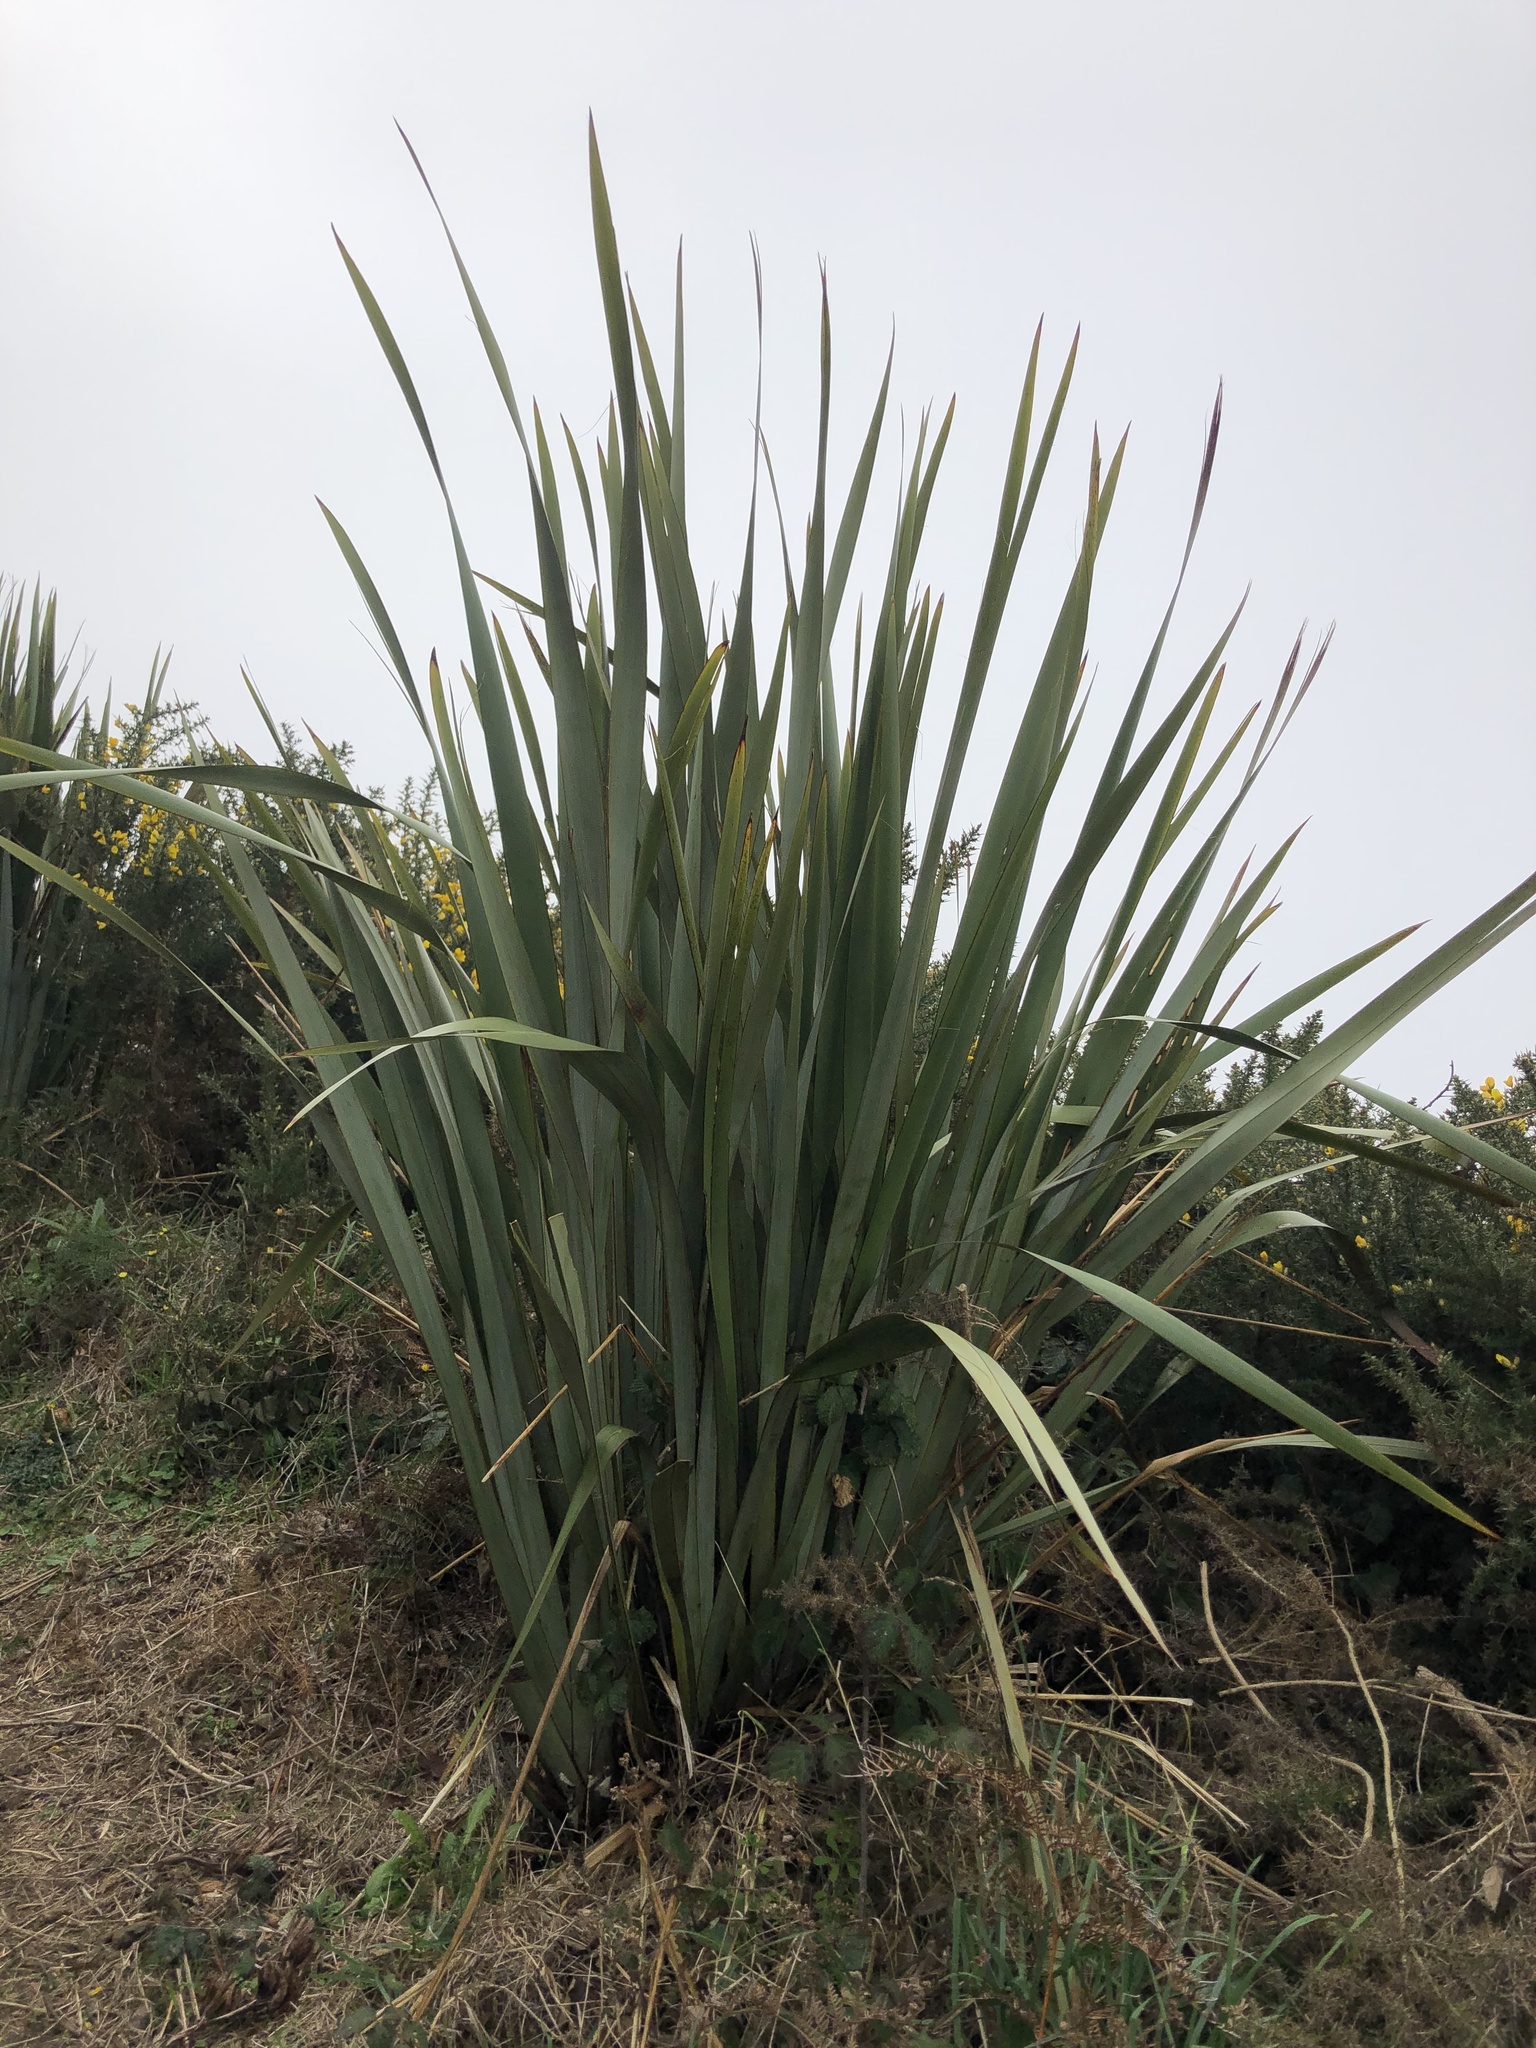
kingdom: Plantae
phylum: Tracheophyta
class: Liliopsida
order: Asparagales
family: Asphodelaceae
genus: Phormium
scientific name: Phormium tenax
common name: New zealand flax
